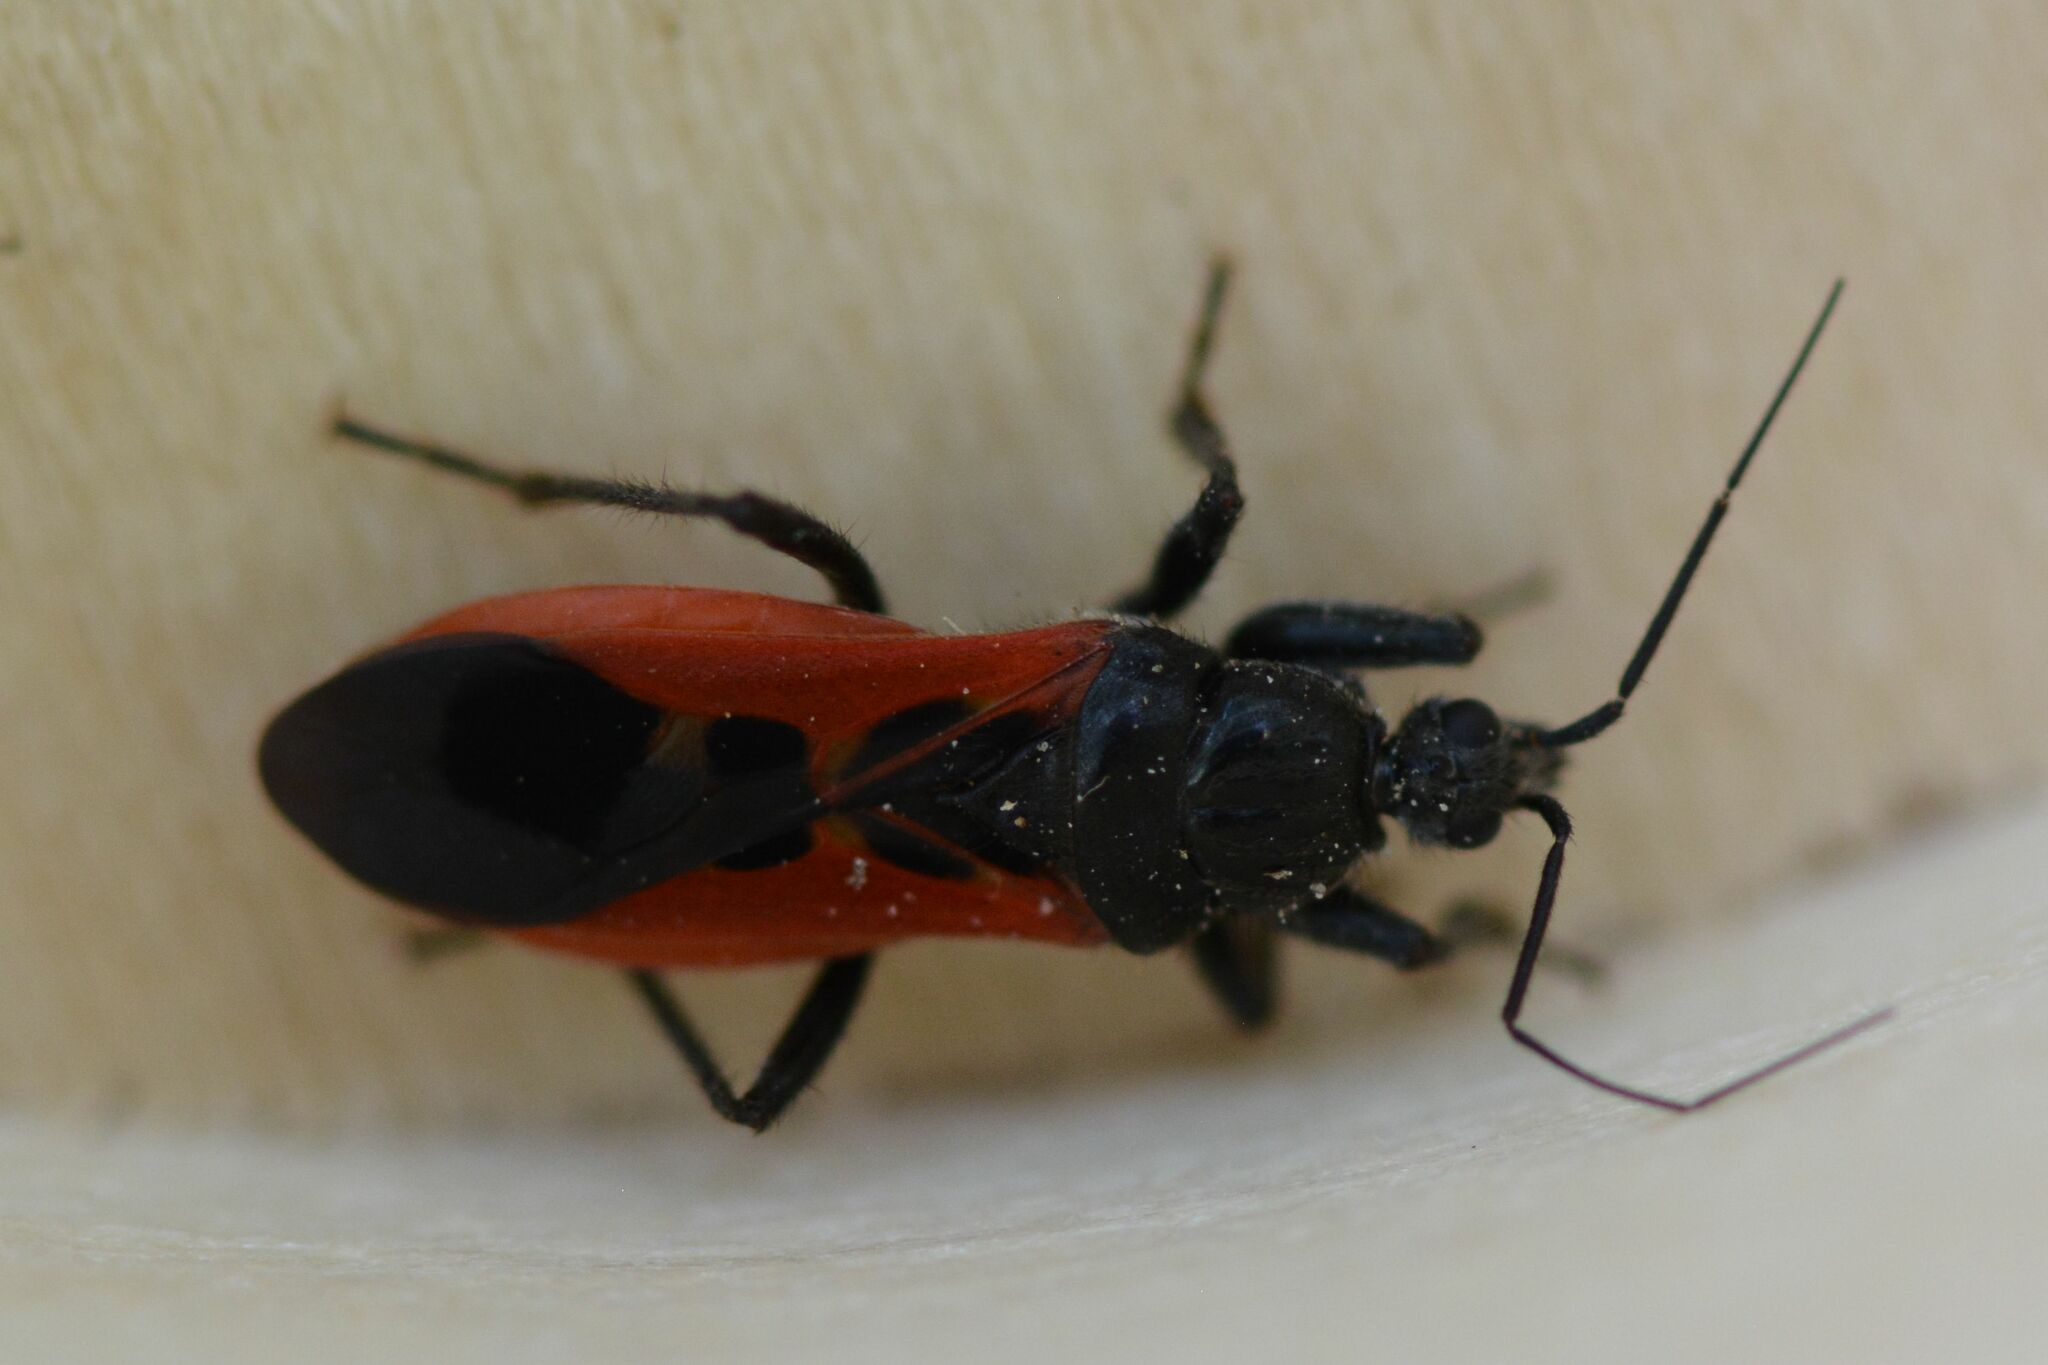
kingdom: Animalia
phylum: Arthropoda
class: Insecta
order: Hemiptera
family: Reduviidae
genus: Peirates
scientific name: Peirates hybridus
